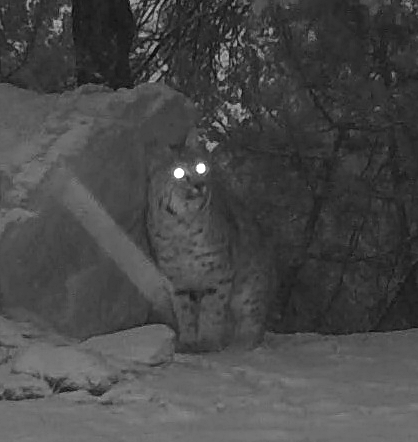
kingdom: Animalia
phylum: Chordata
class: Mammalia
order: Carnivora
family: Felidae
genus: Lynx
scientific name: Lynx rufus
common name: Bobcat
